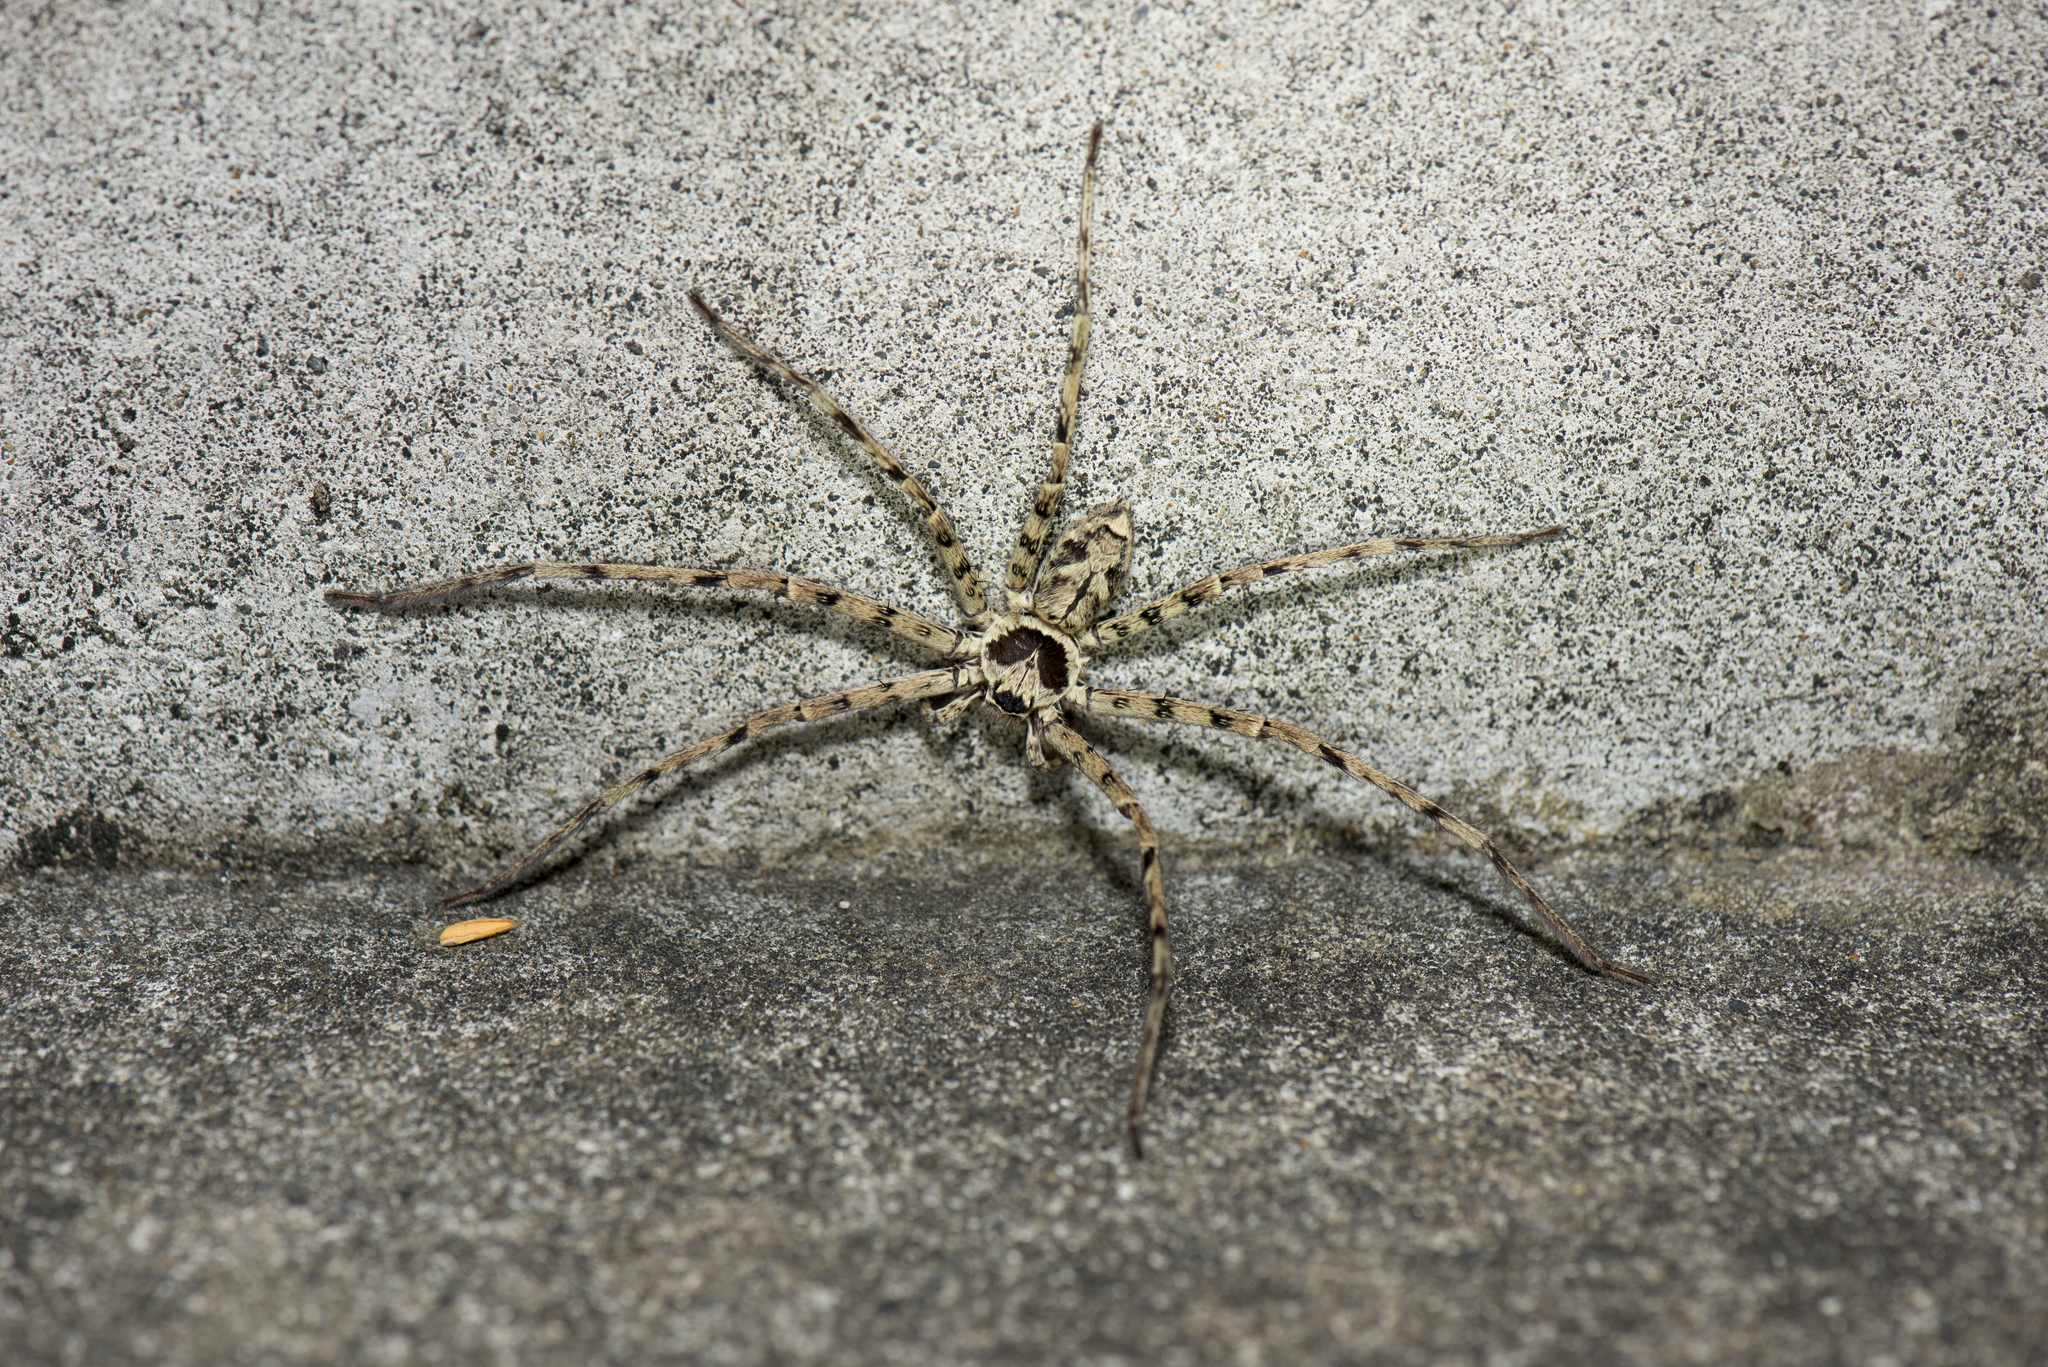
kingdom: Animalia
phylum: Arthropoda
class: Arachnida
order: Araneae
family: Sparassidae
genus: Heteropoda
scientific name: Heteropoda venatoria
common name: Huntsman spider
